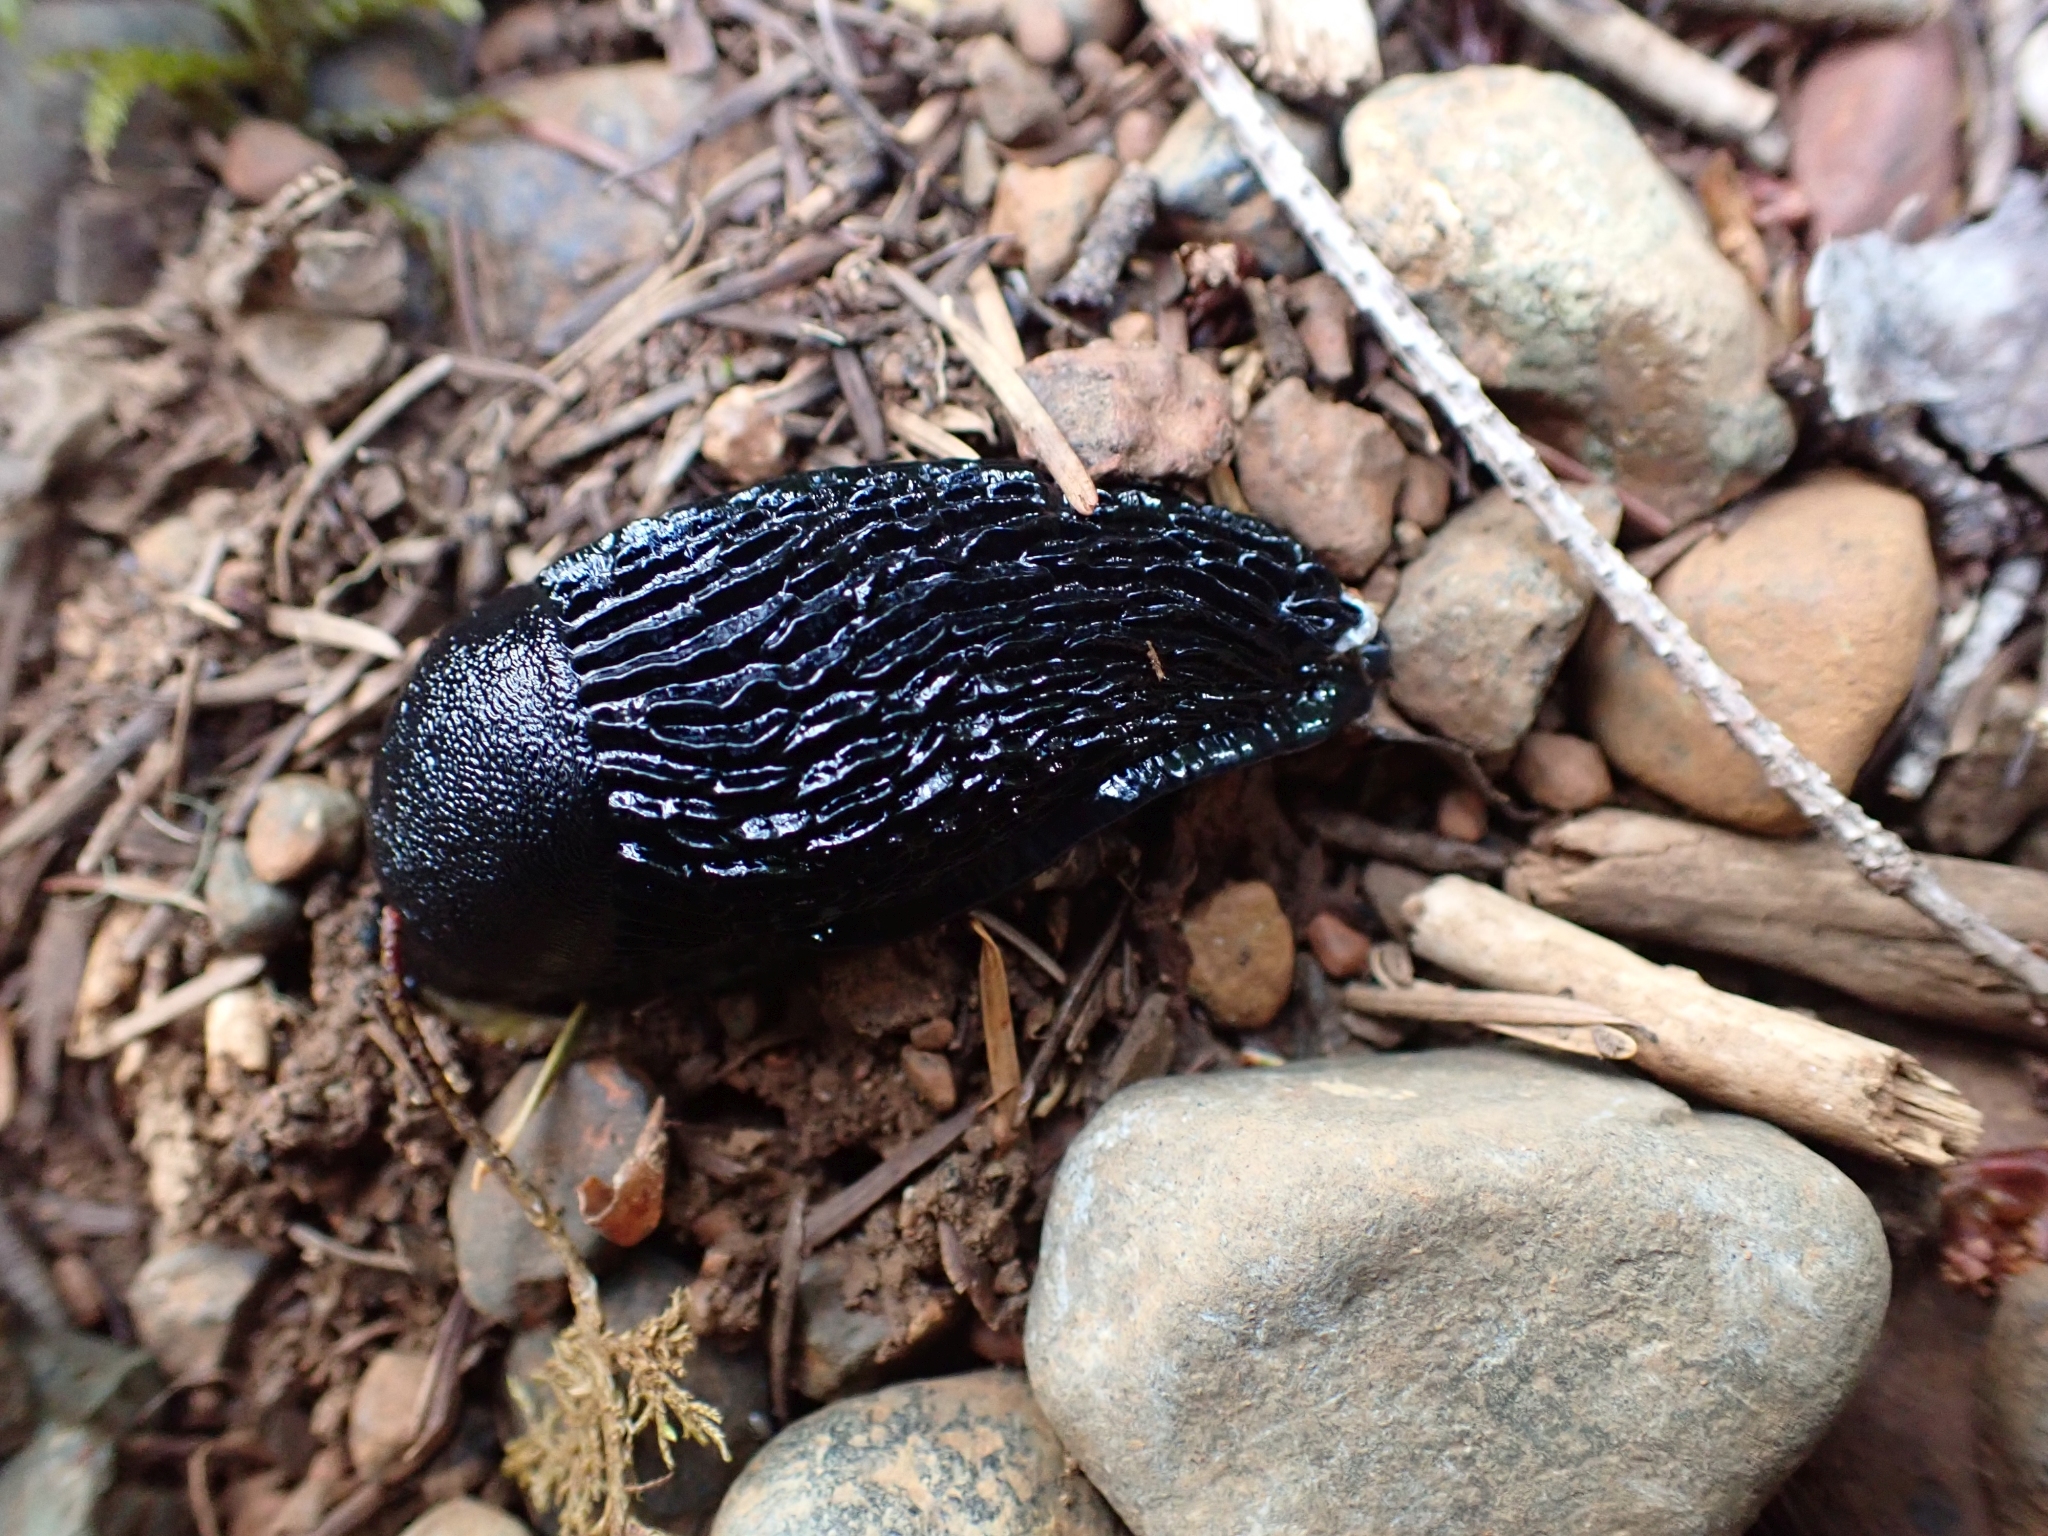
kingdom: Animalia
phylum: Mollusca
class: Gastropoda
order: Stylommatophora
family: Arionidae
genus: Arion
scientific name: Arion
